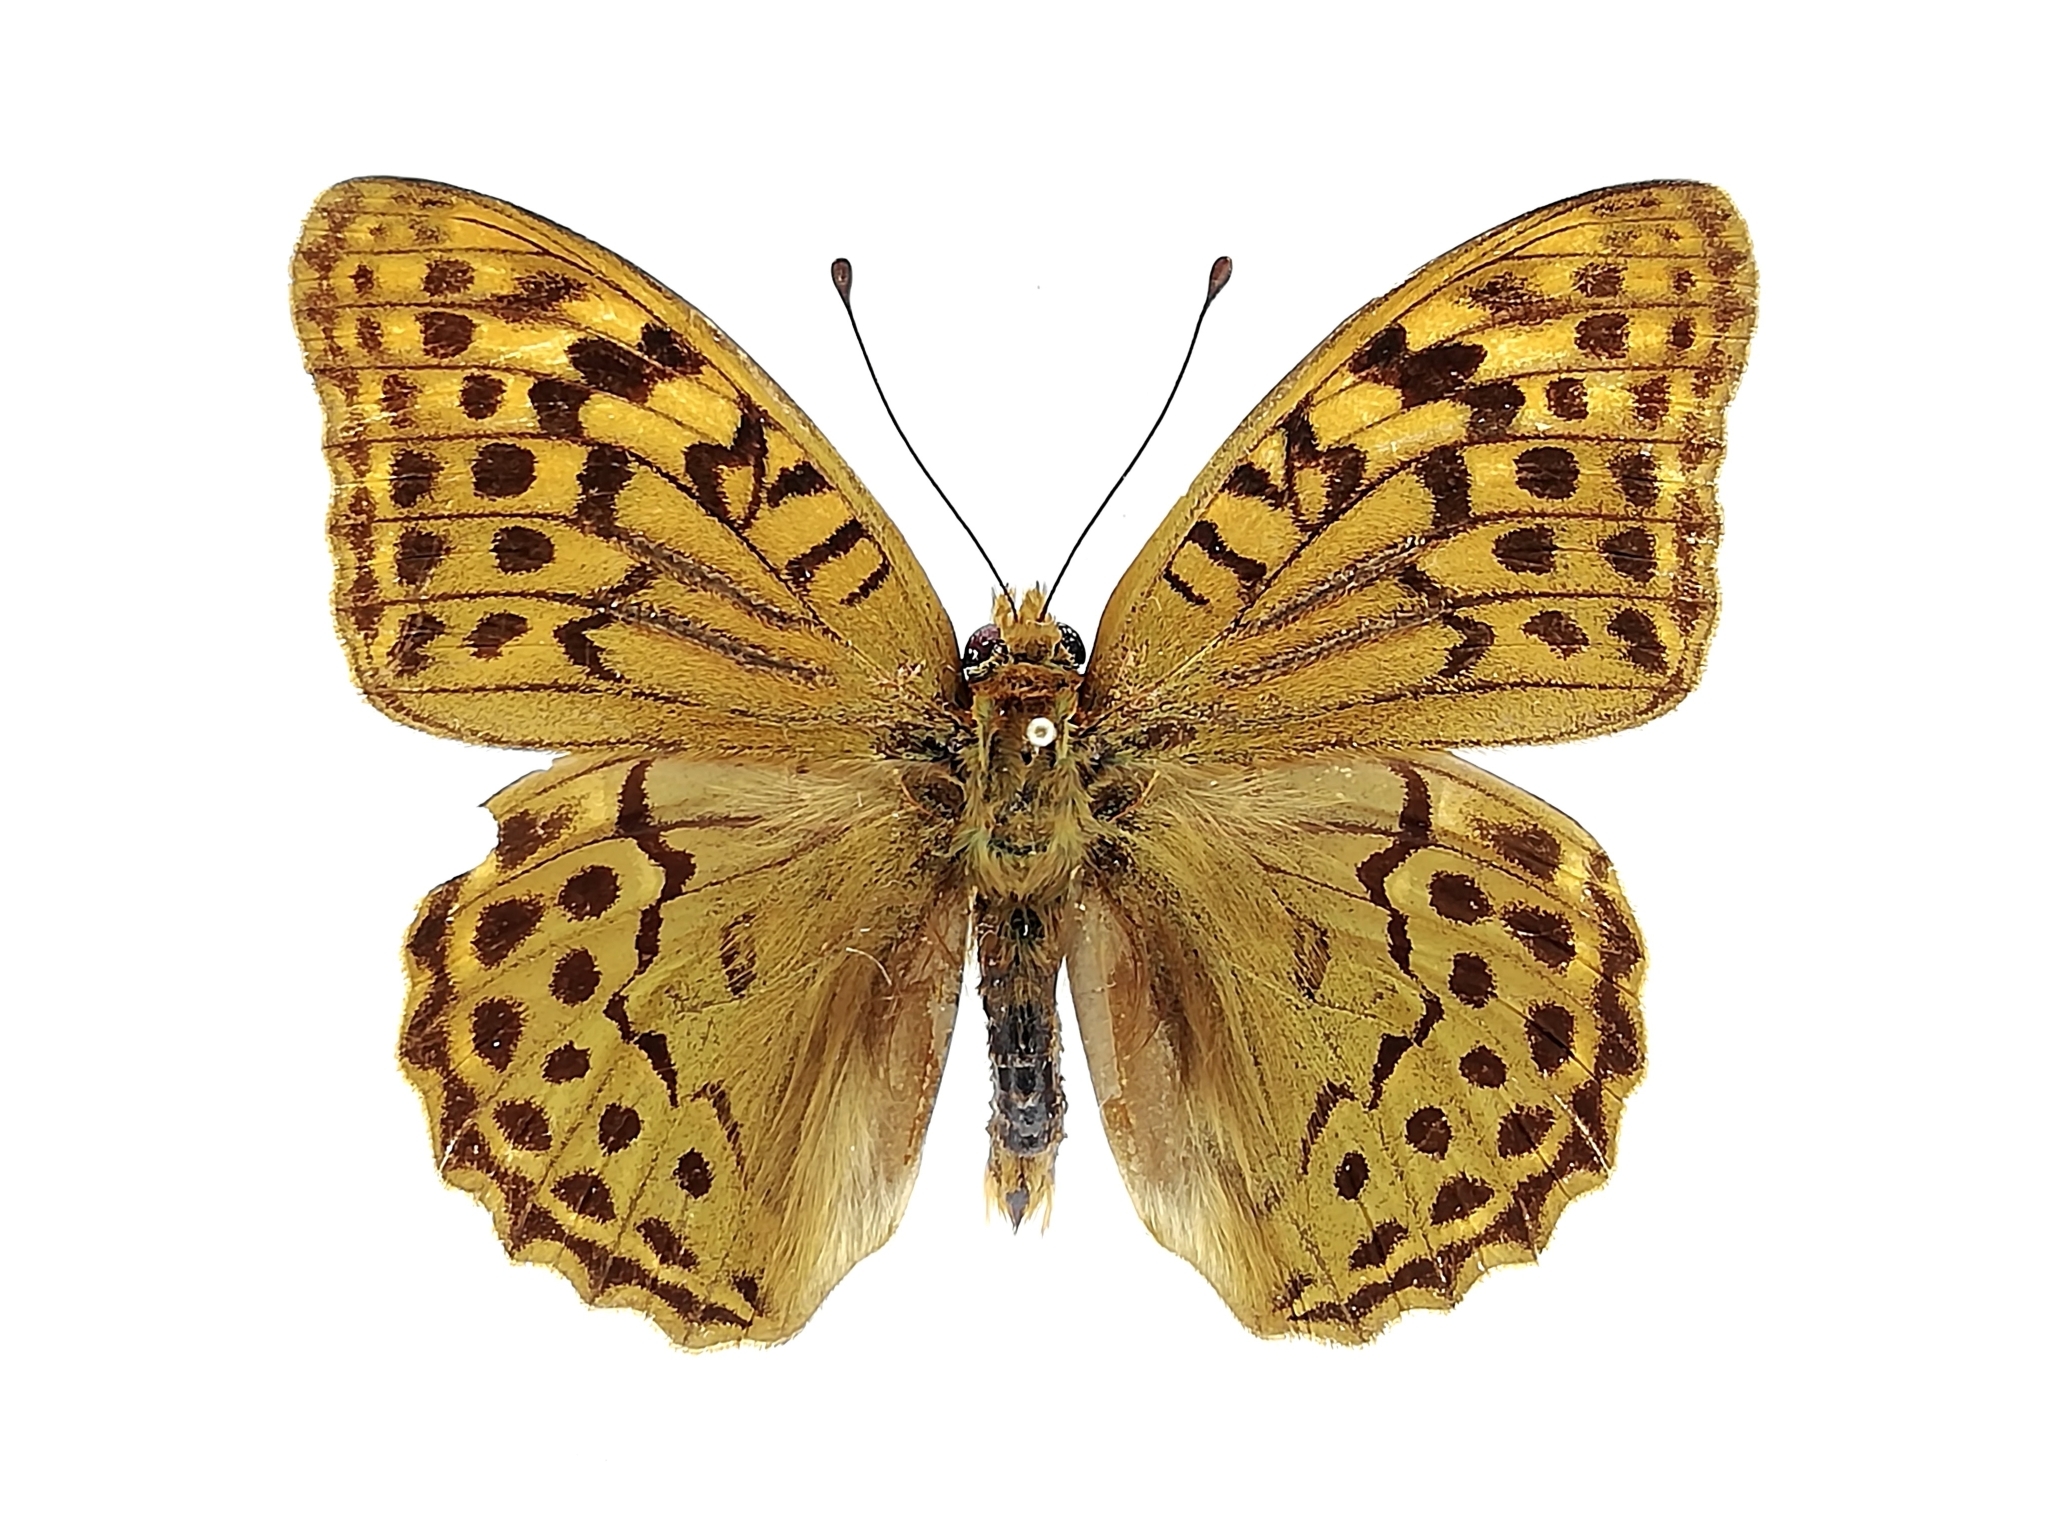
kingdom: Animalia
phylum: Arthropoda
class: Insecta
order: Lepidoptera
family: Nymphalidae
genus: Damora
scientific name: Damora pandora
